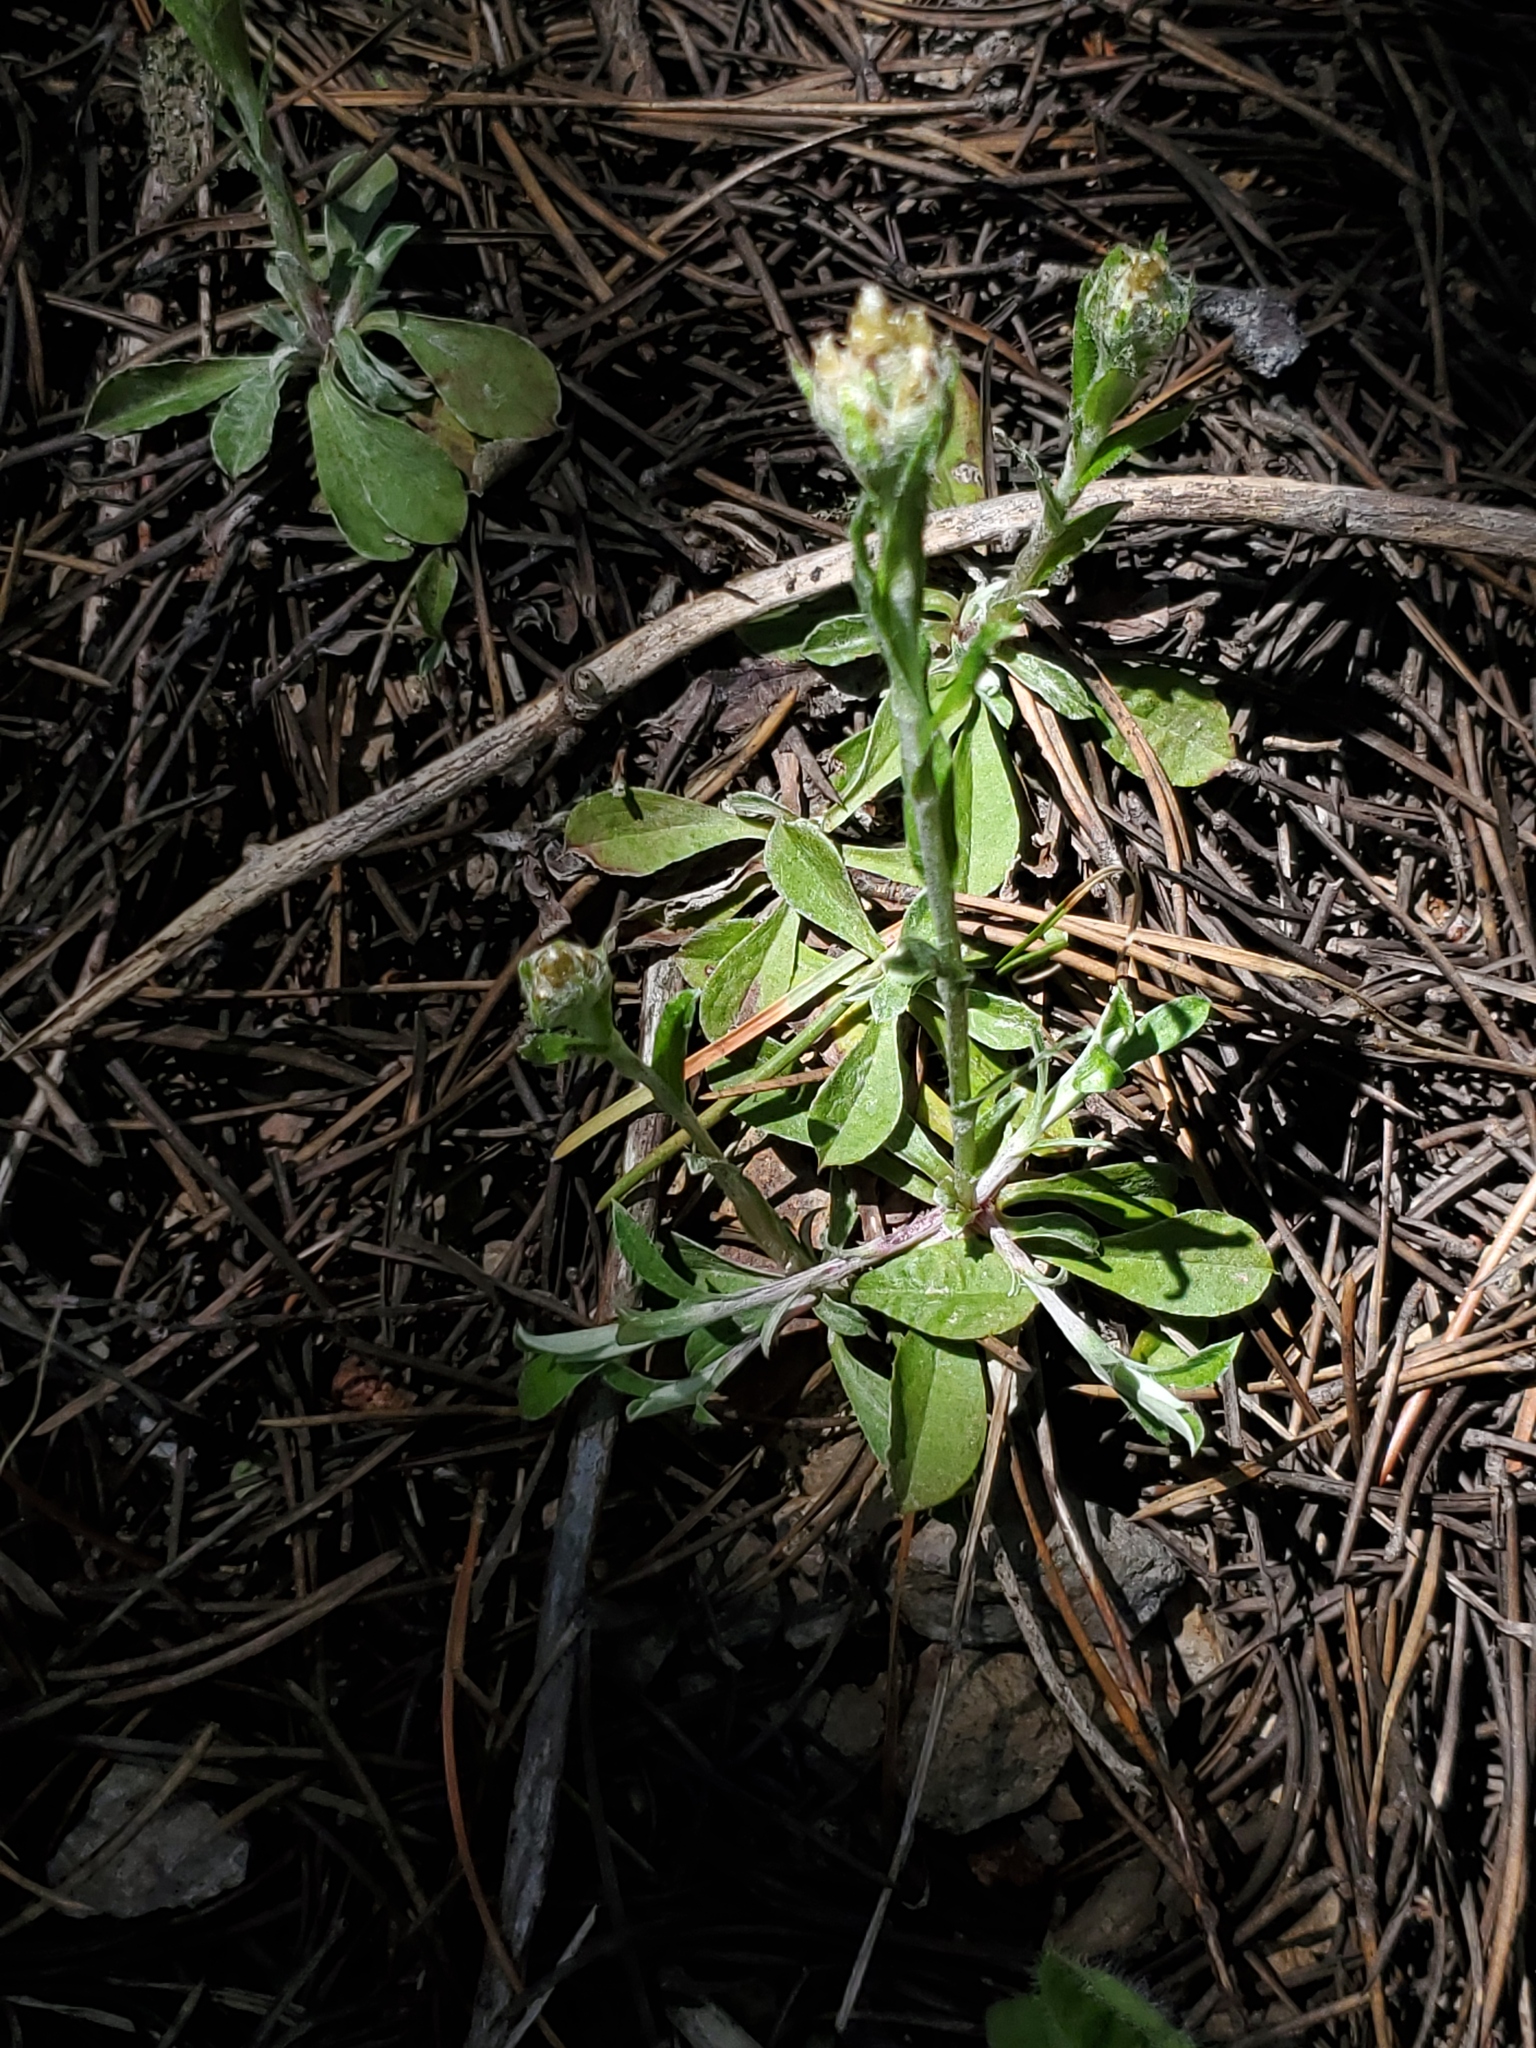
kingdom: Plantae
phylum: Tracheophyta
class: Magnoliopsida
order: Asterales
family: Asteraceae
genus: Antennaria
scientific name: Antennaria howellii
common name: Howell's pussytoes
